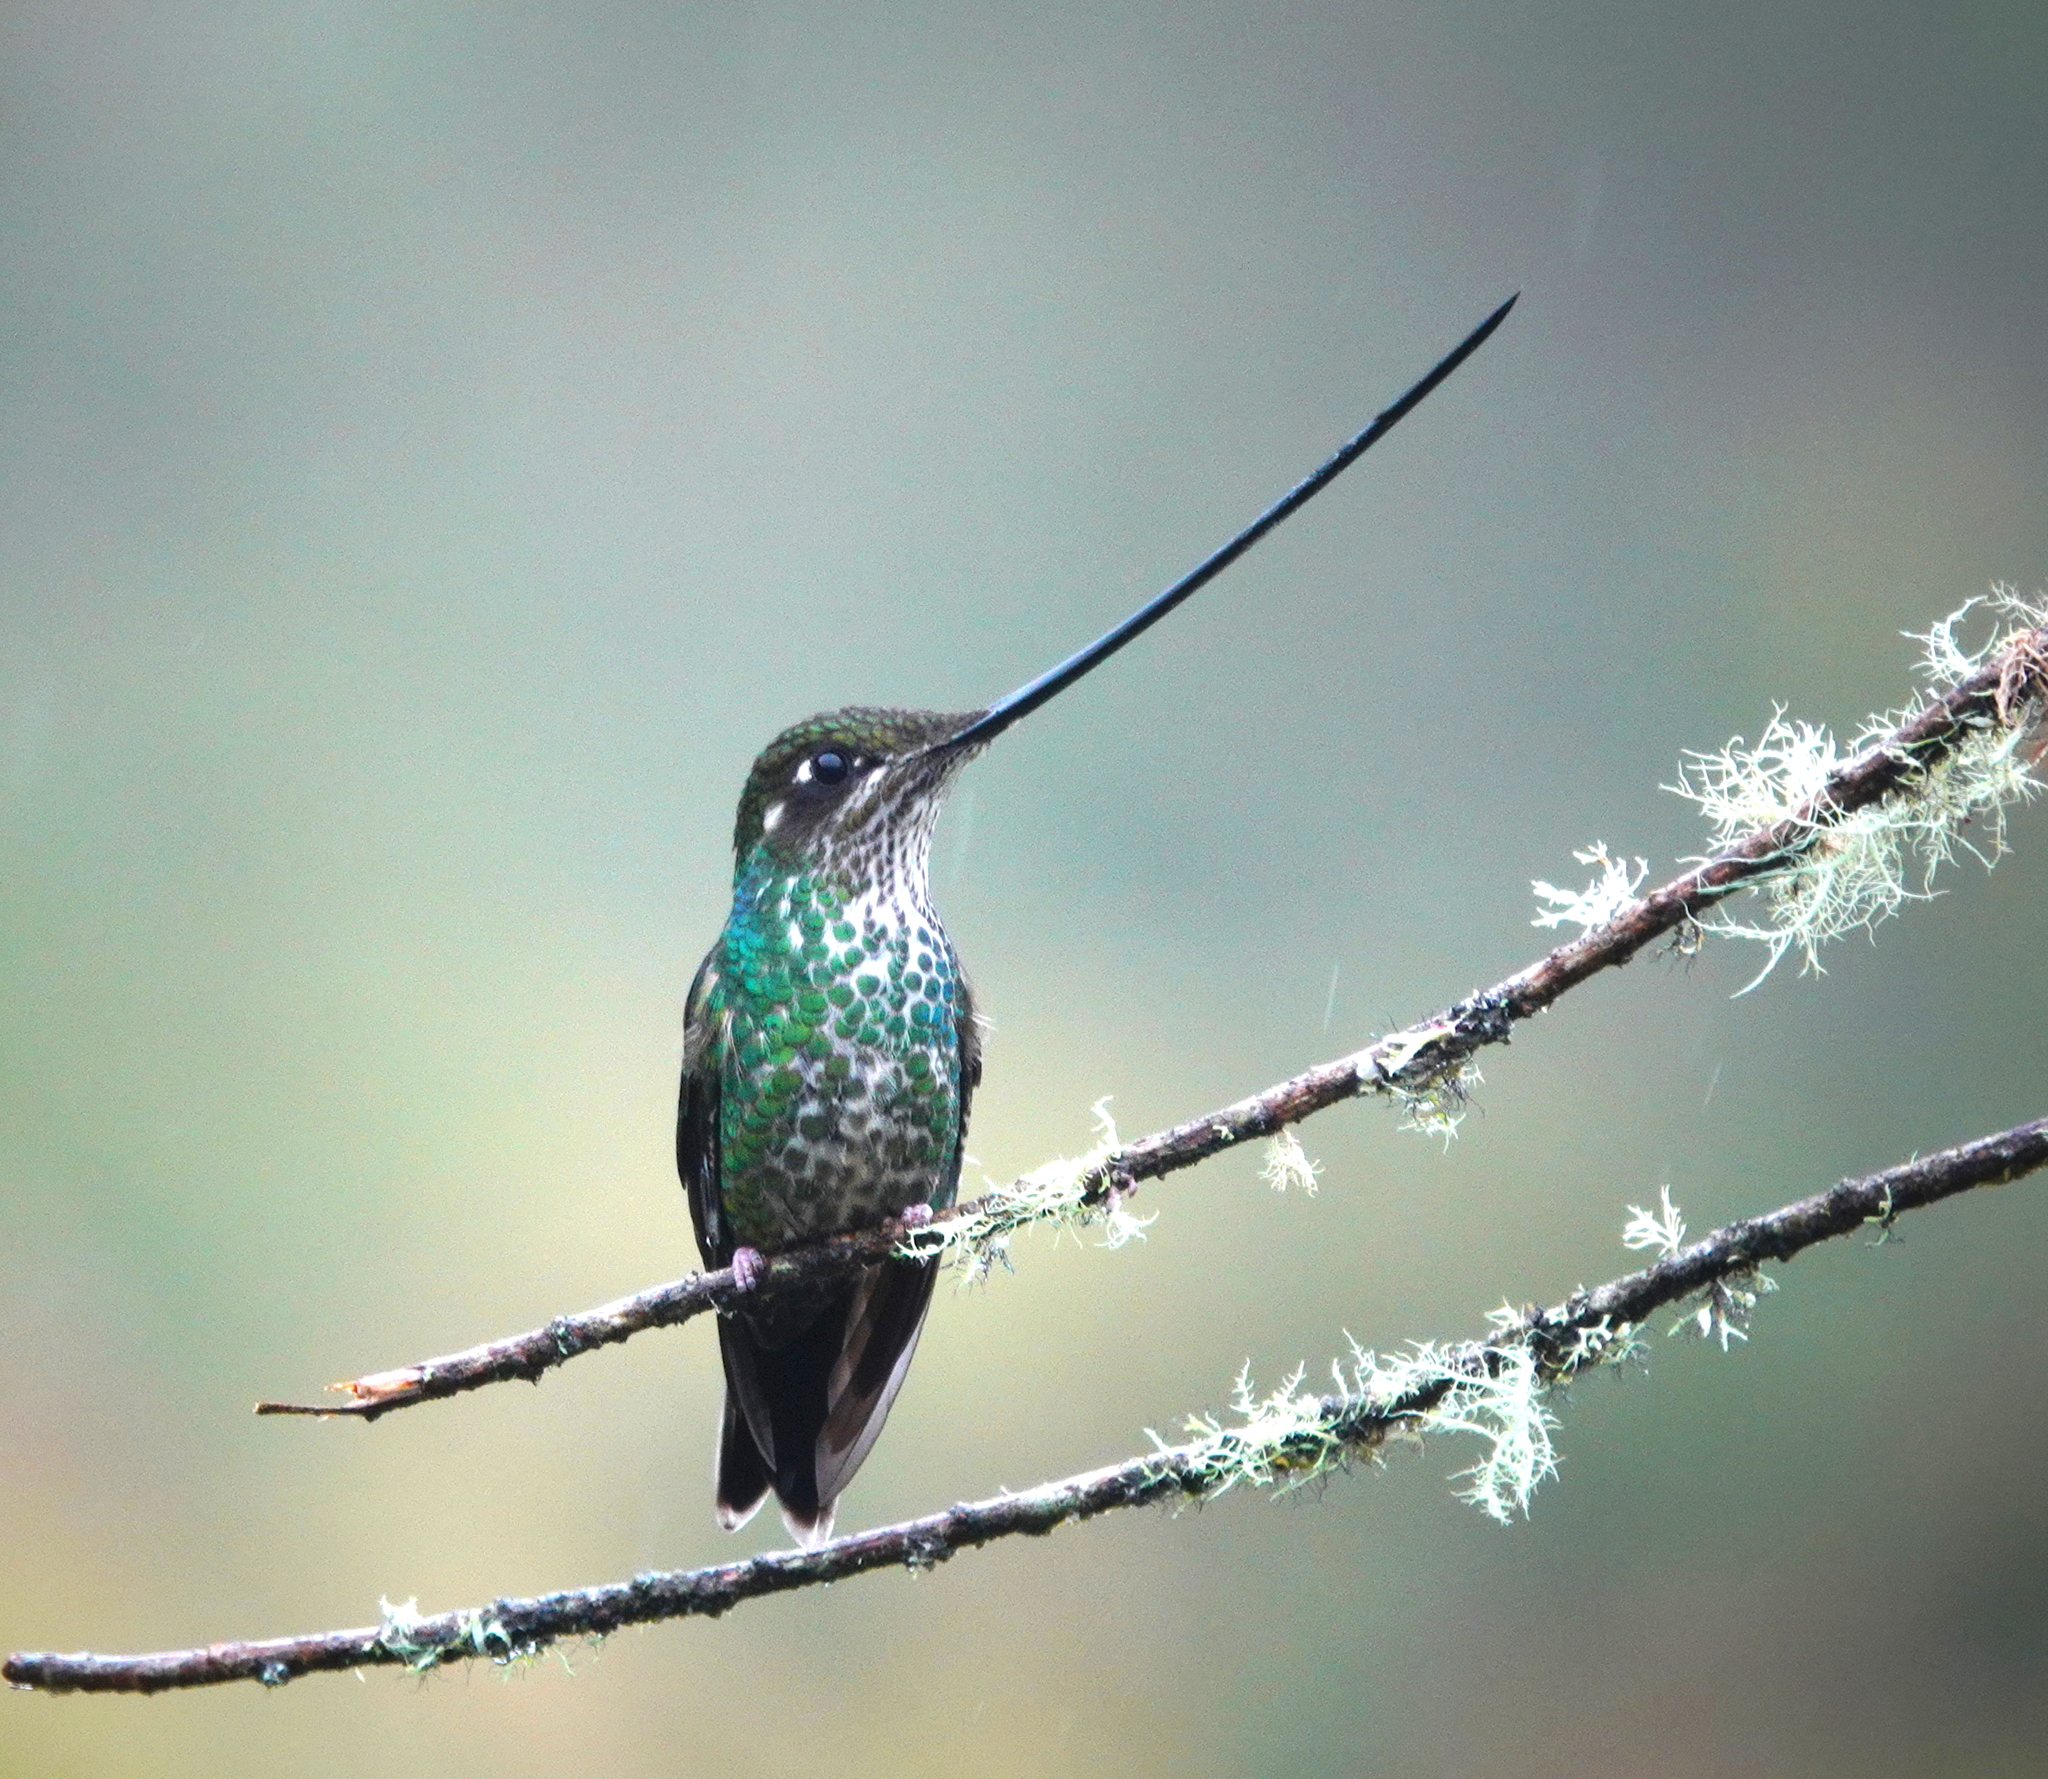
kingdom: Animalia
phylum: Chordata
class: Aves
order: Apodiformes
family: Trochilidae
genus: Ensifera
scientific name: Ensifera ensifera
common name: Sword-billed hummingbird
